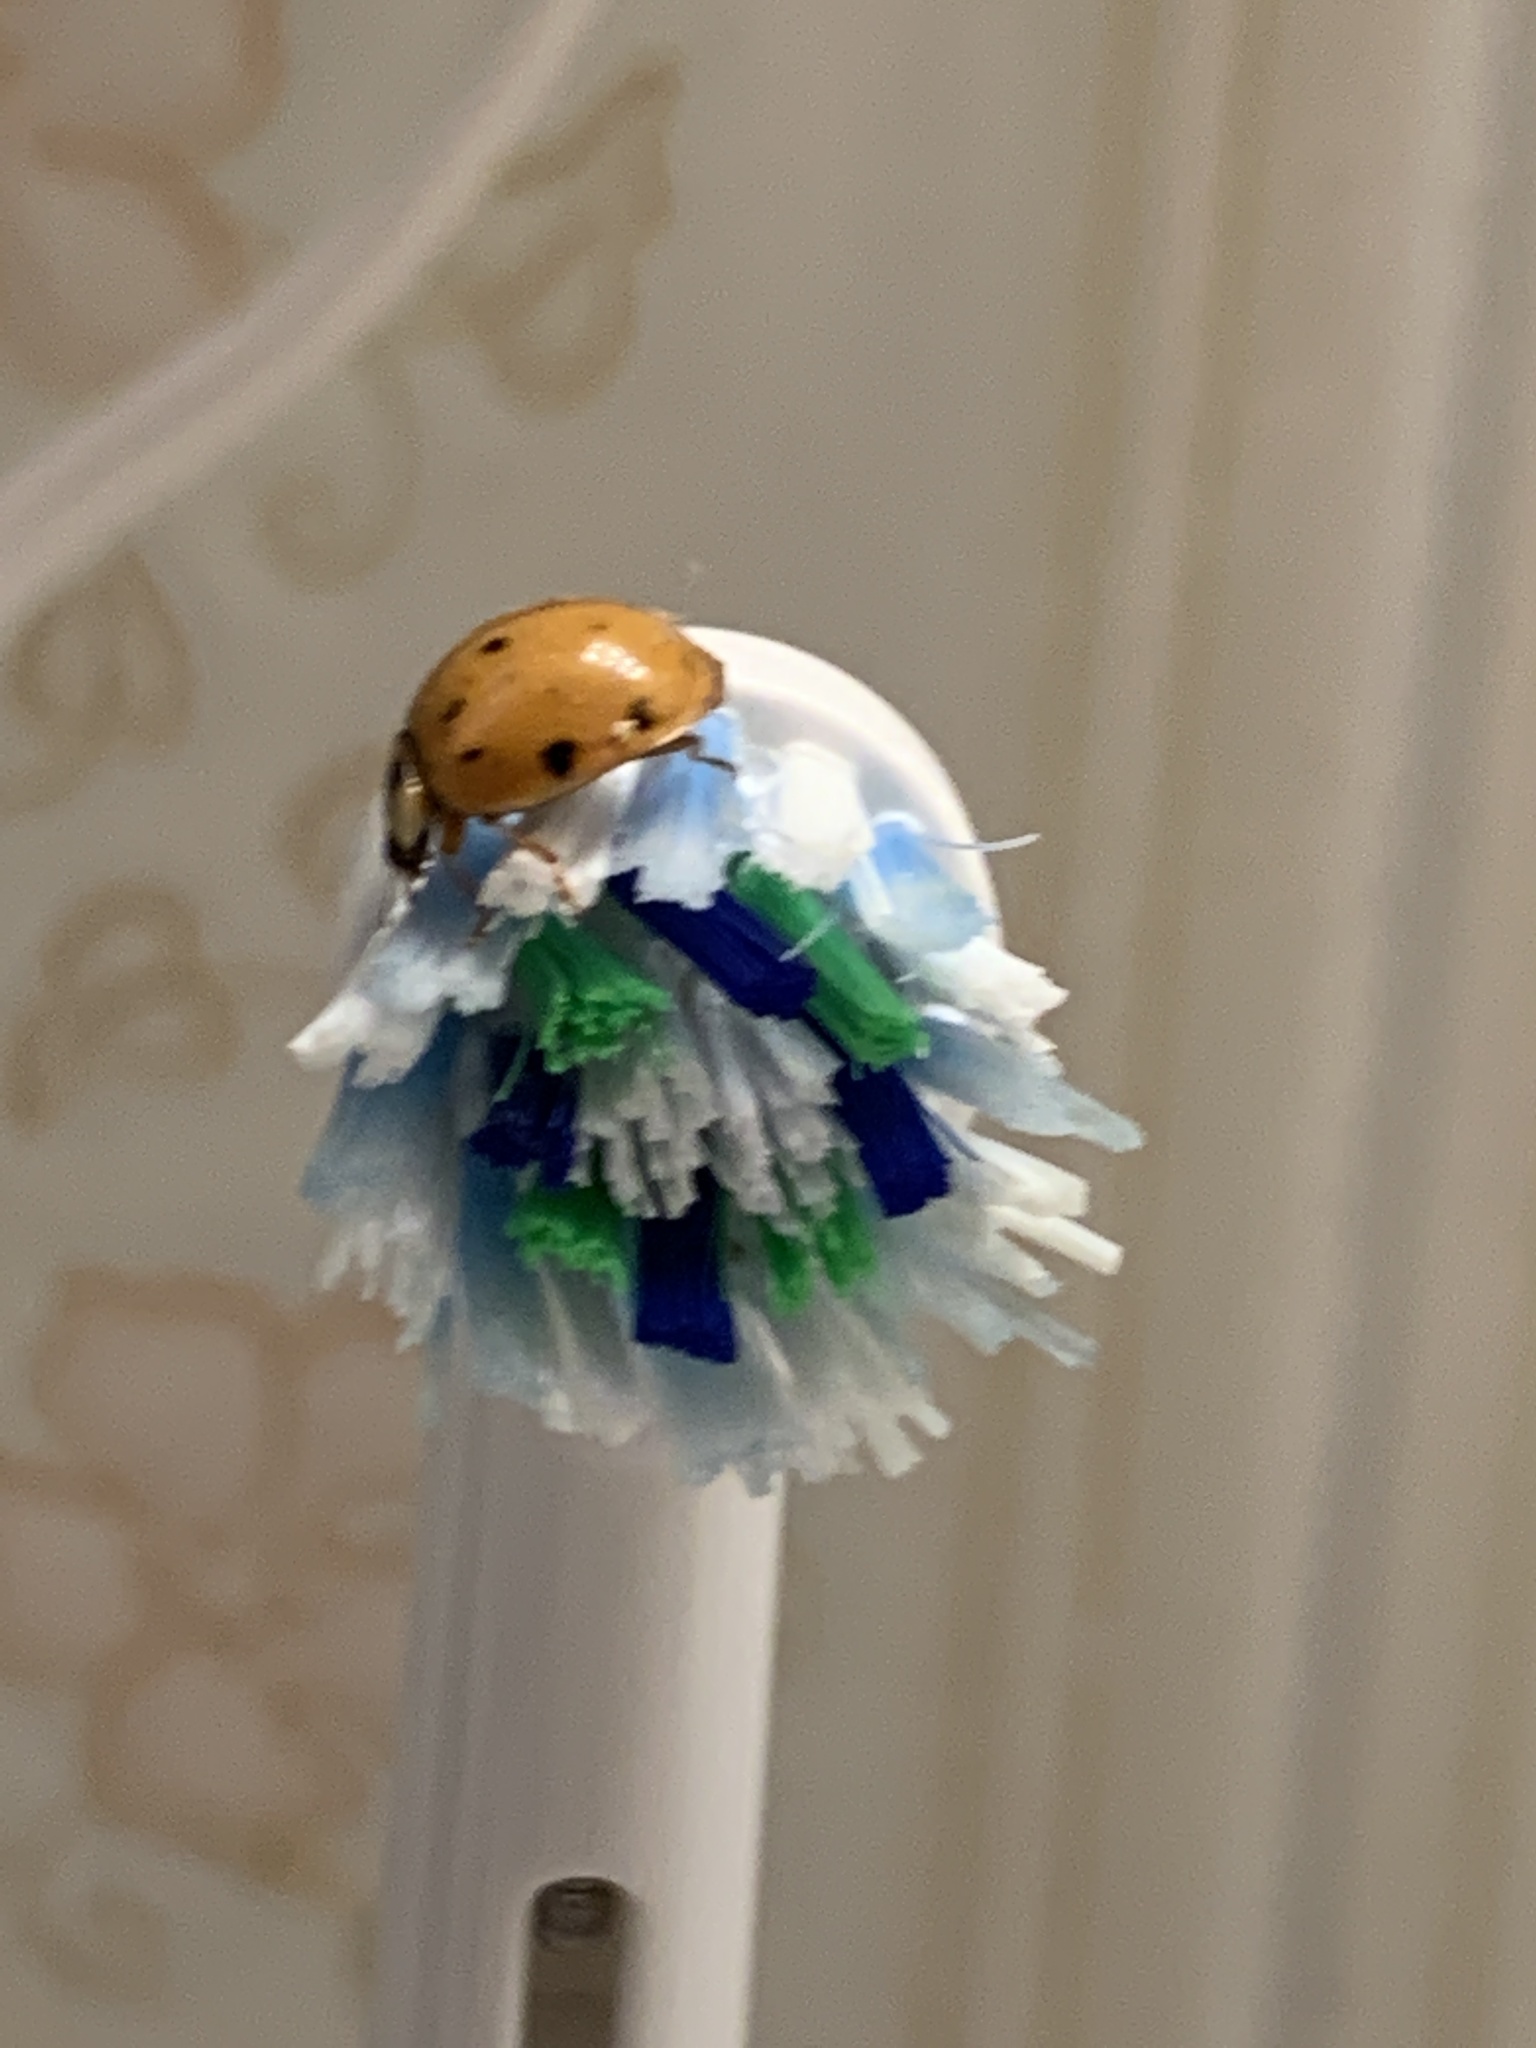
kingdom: Animalia
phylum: Arthropoda
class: Insecta
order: Coleoptera
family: Coccinellidae
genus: Harmonia
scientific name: Harmonia axyridis
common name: Harlequin ladybird
